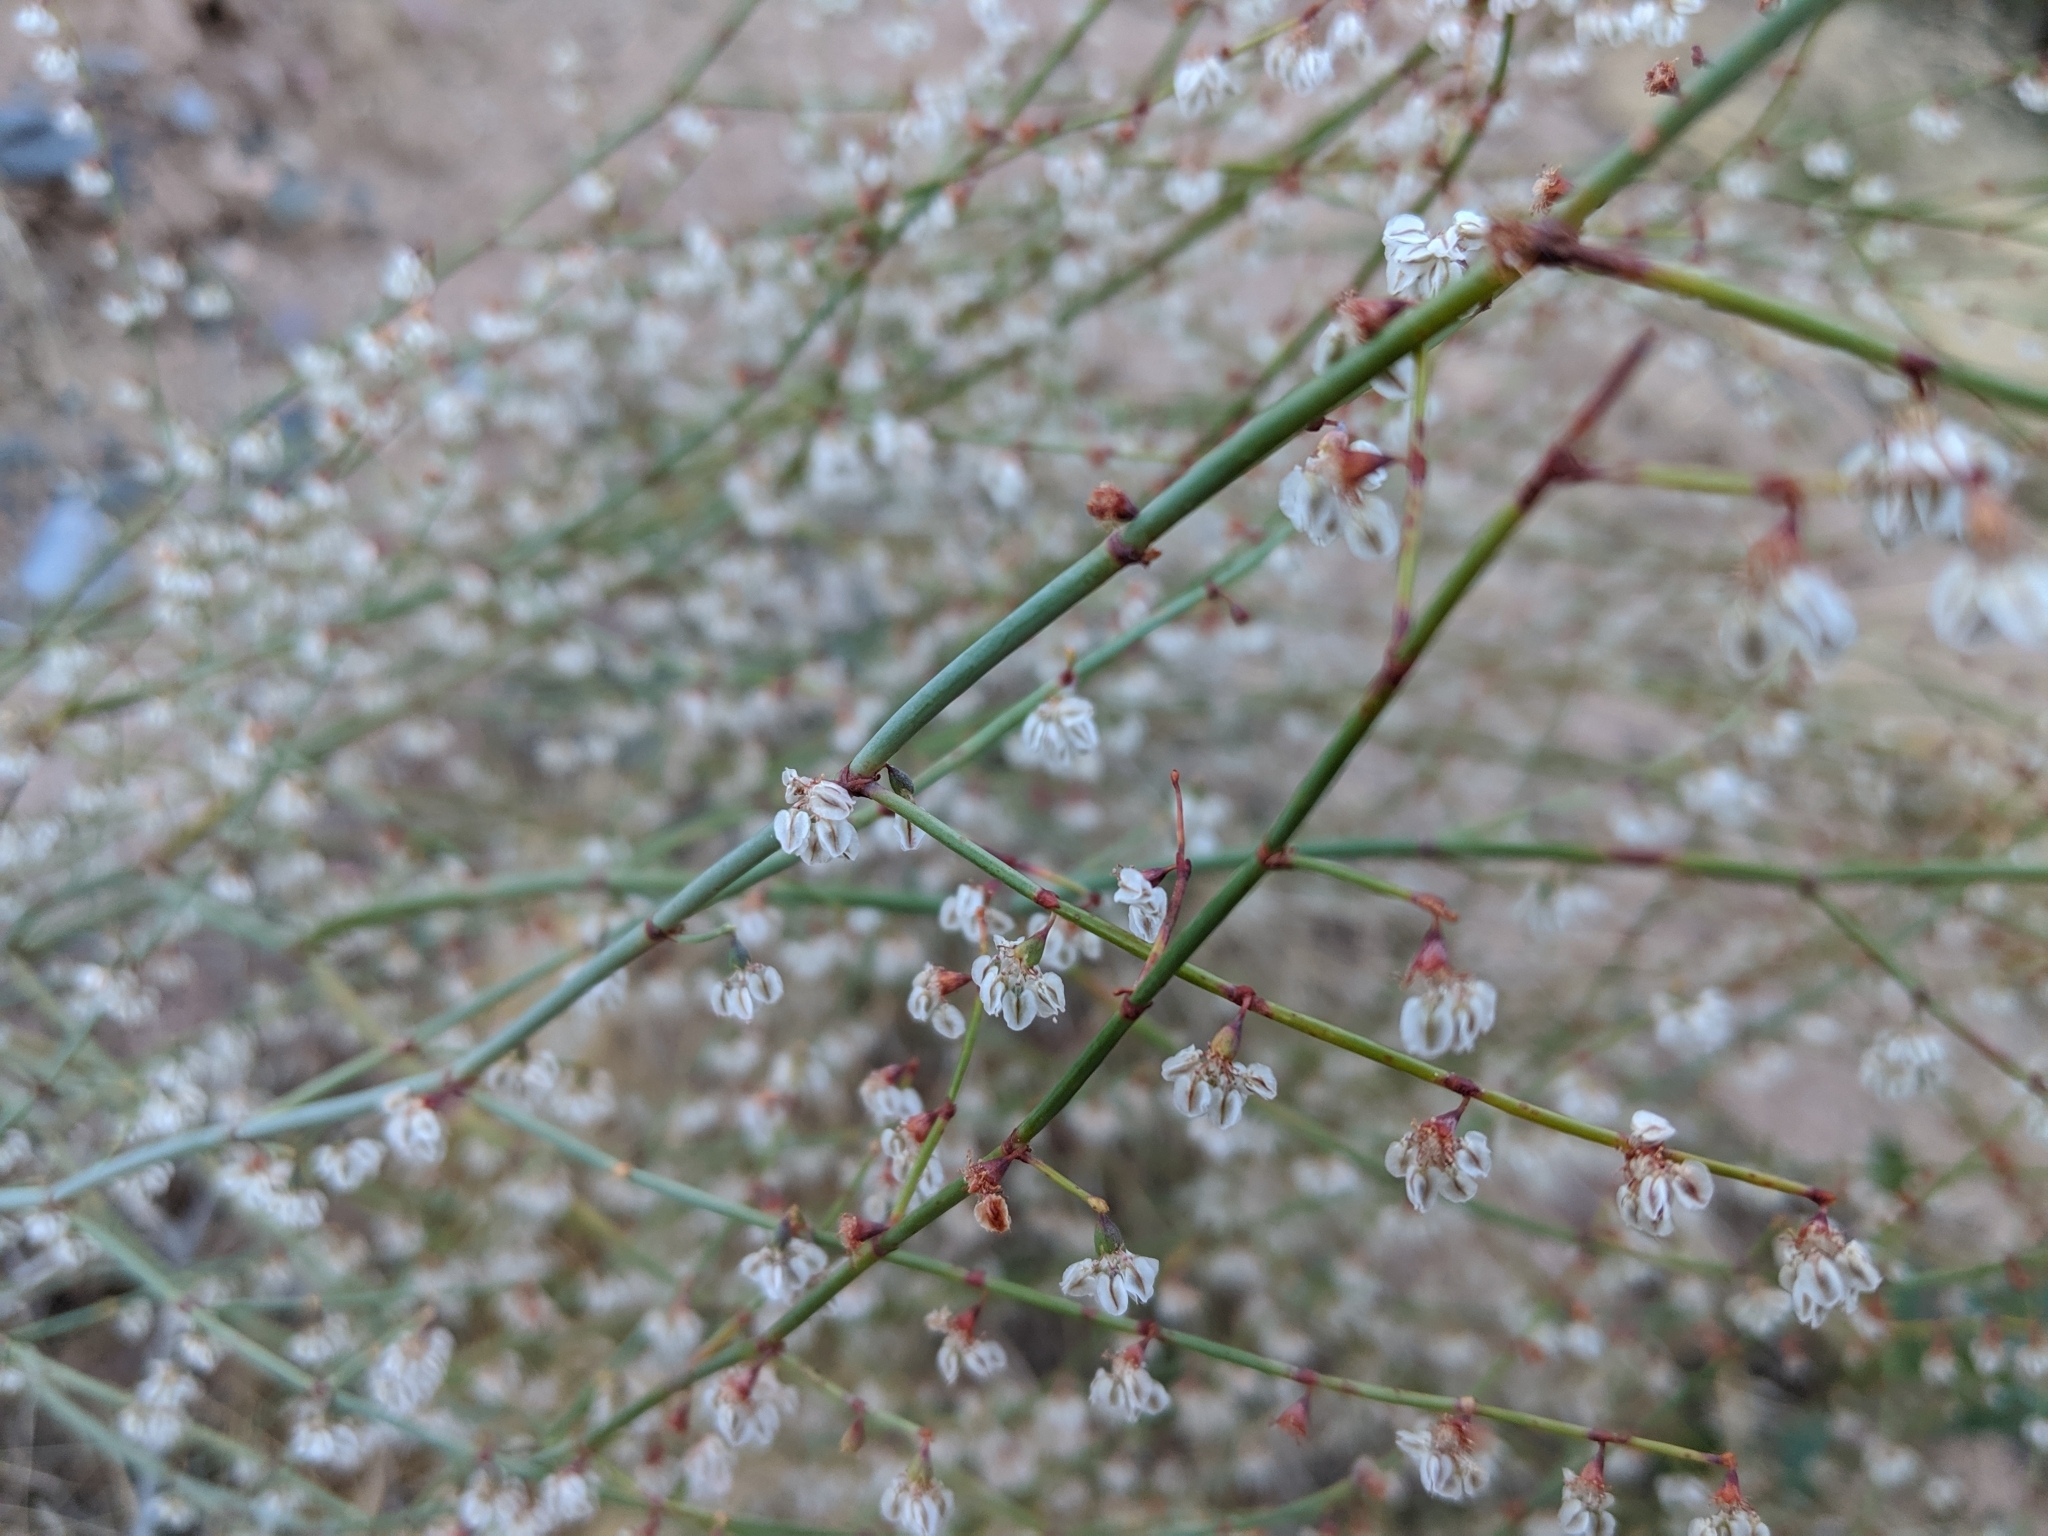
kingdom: Plantae
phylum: Tracheophyta
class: Magnoliopsida
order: Caryophyllales
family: Polygonaceae
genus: Eriogonum
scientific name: Eriogonum deflexum
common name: Skeleton-weed
